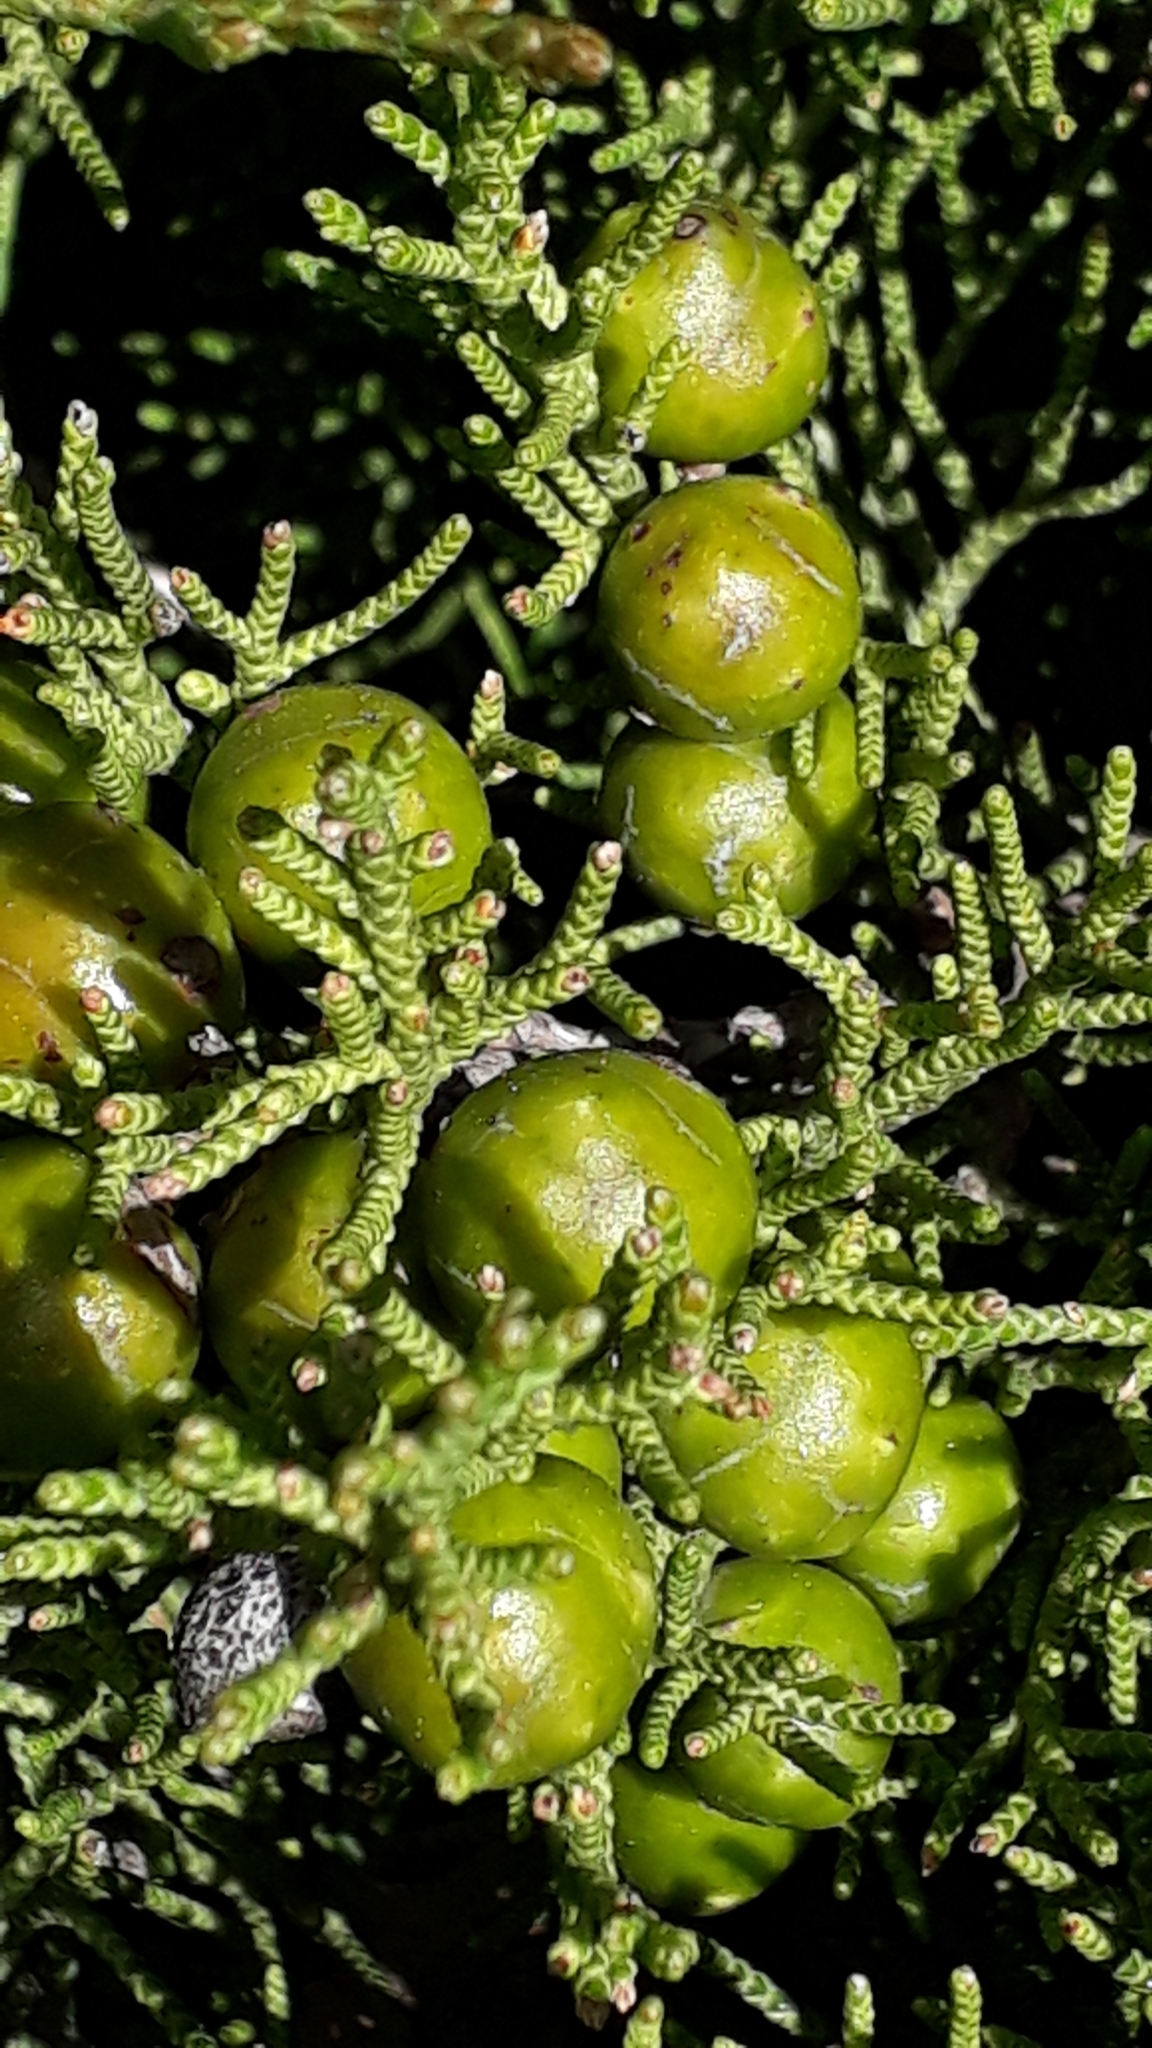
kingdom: Plantae
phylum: Tracheophyta
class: Pinopsida
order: Pinales
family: Cupressaceae
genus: Juniperus
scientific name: Juniperus phoenicea
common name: Phoenician juniper
